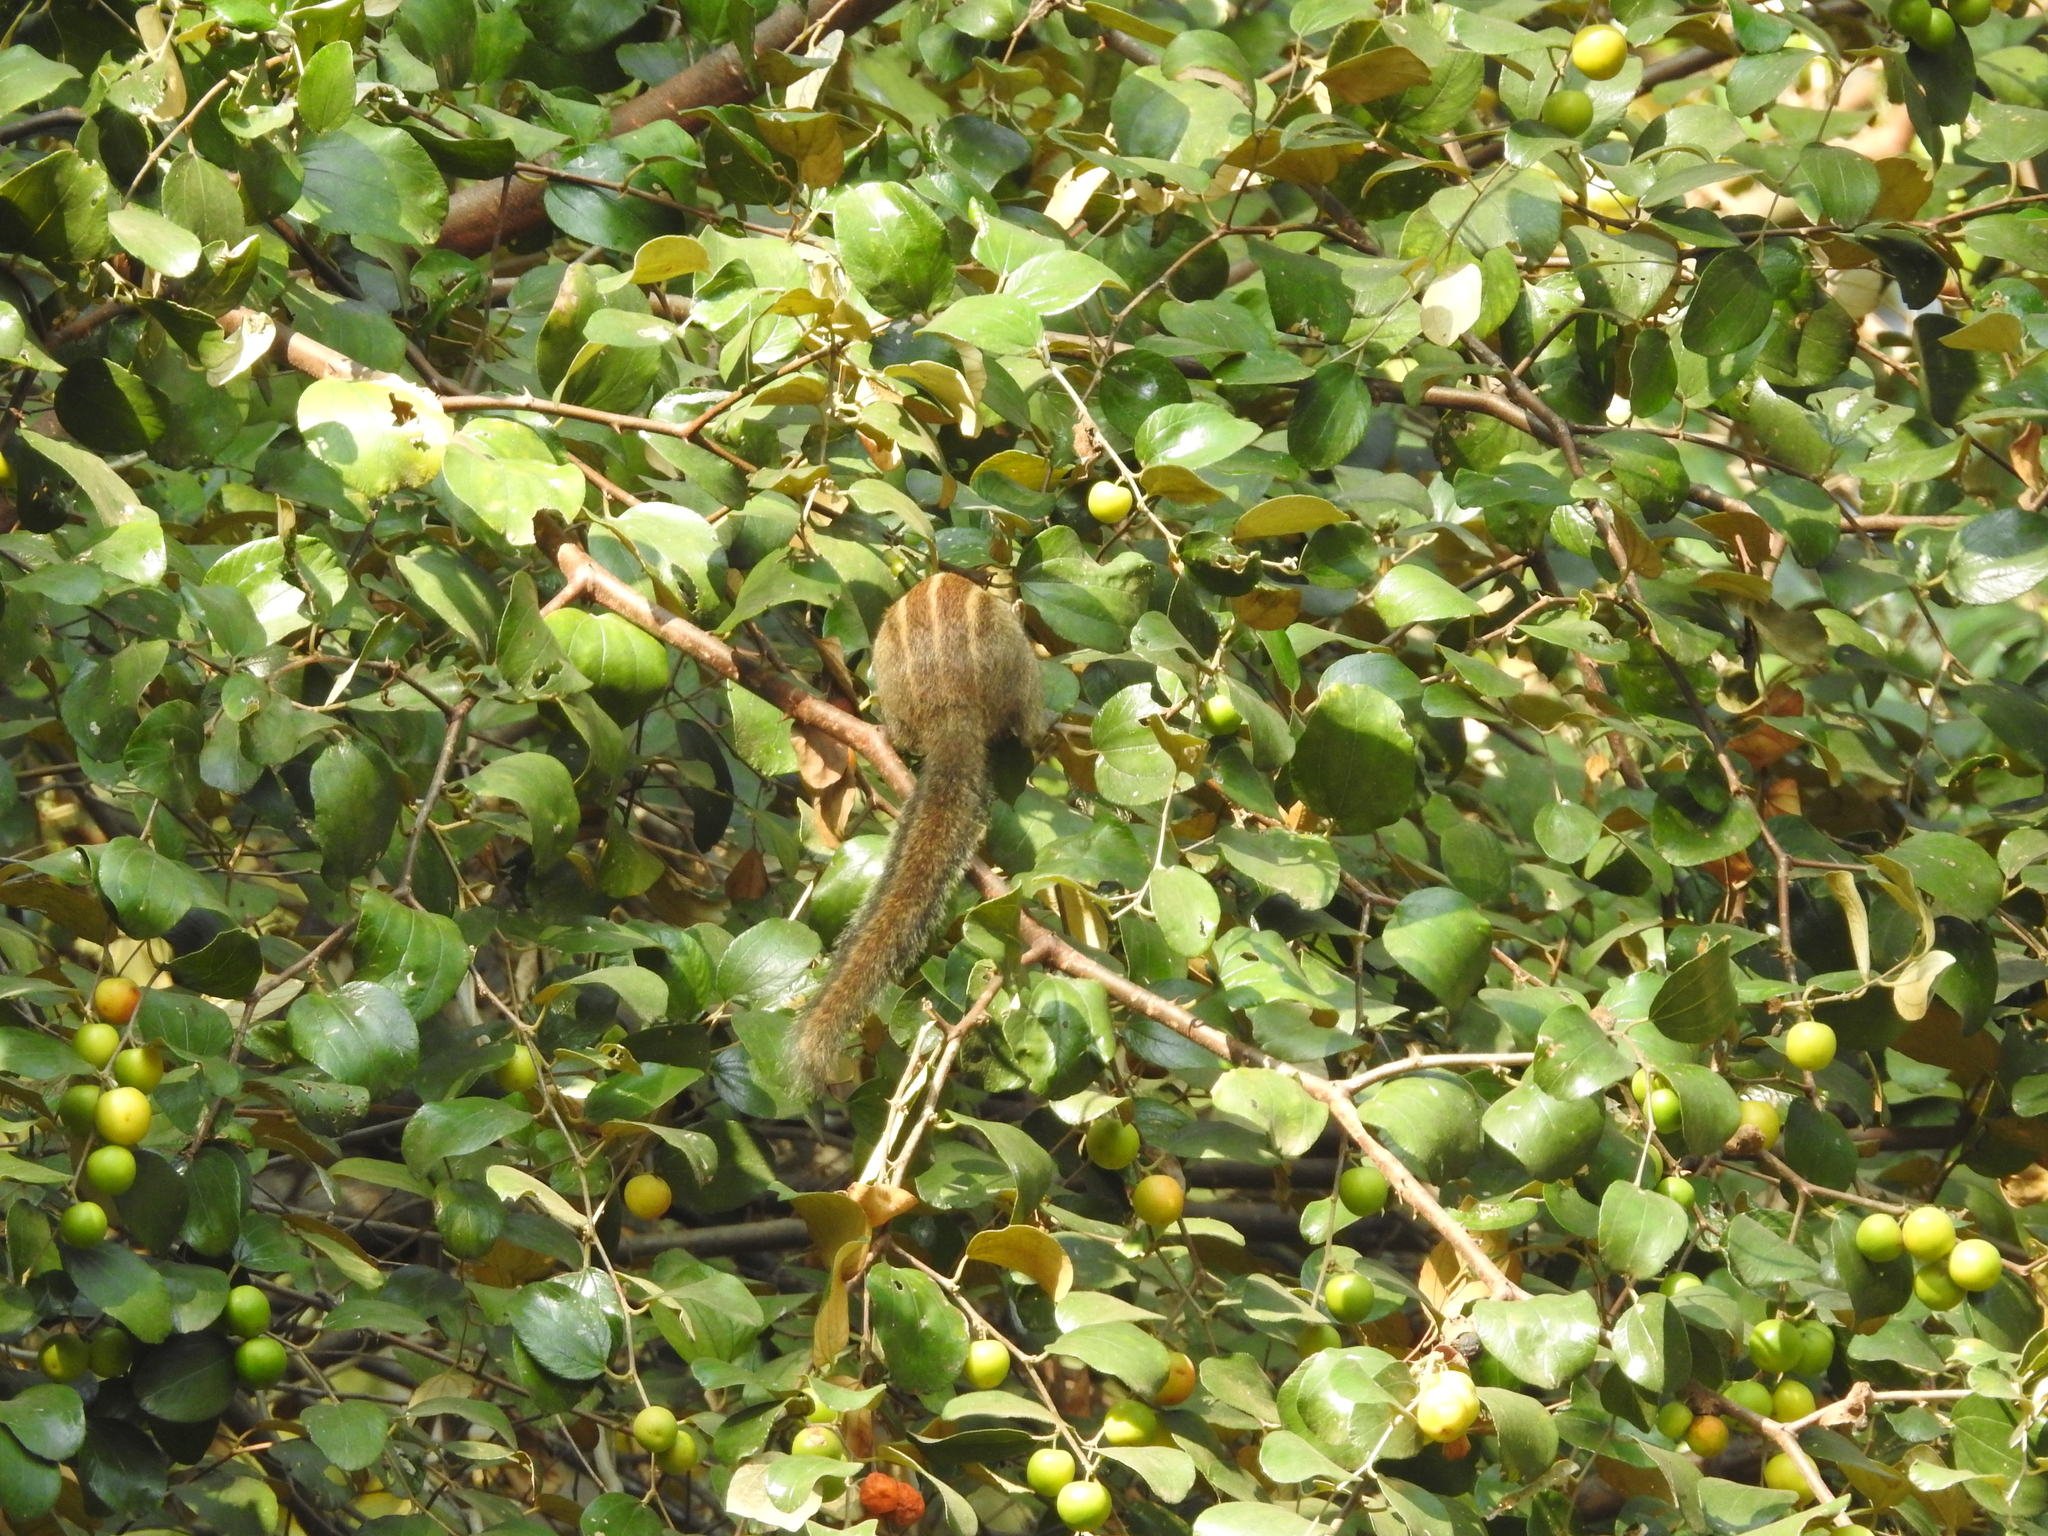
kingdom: Animalia
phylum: Chordata
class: Mammalia
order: Rodentia
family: Sciuridae
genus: Funambulus
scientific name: Funambulus tristriatus
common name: Jungle palm squirrel
